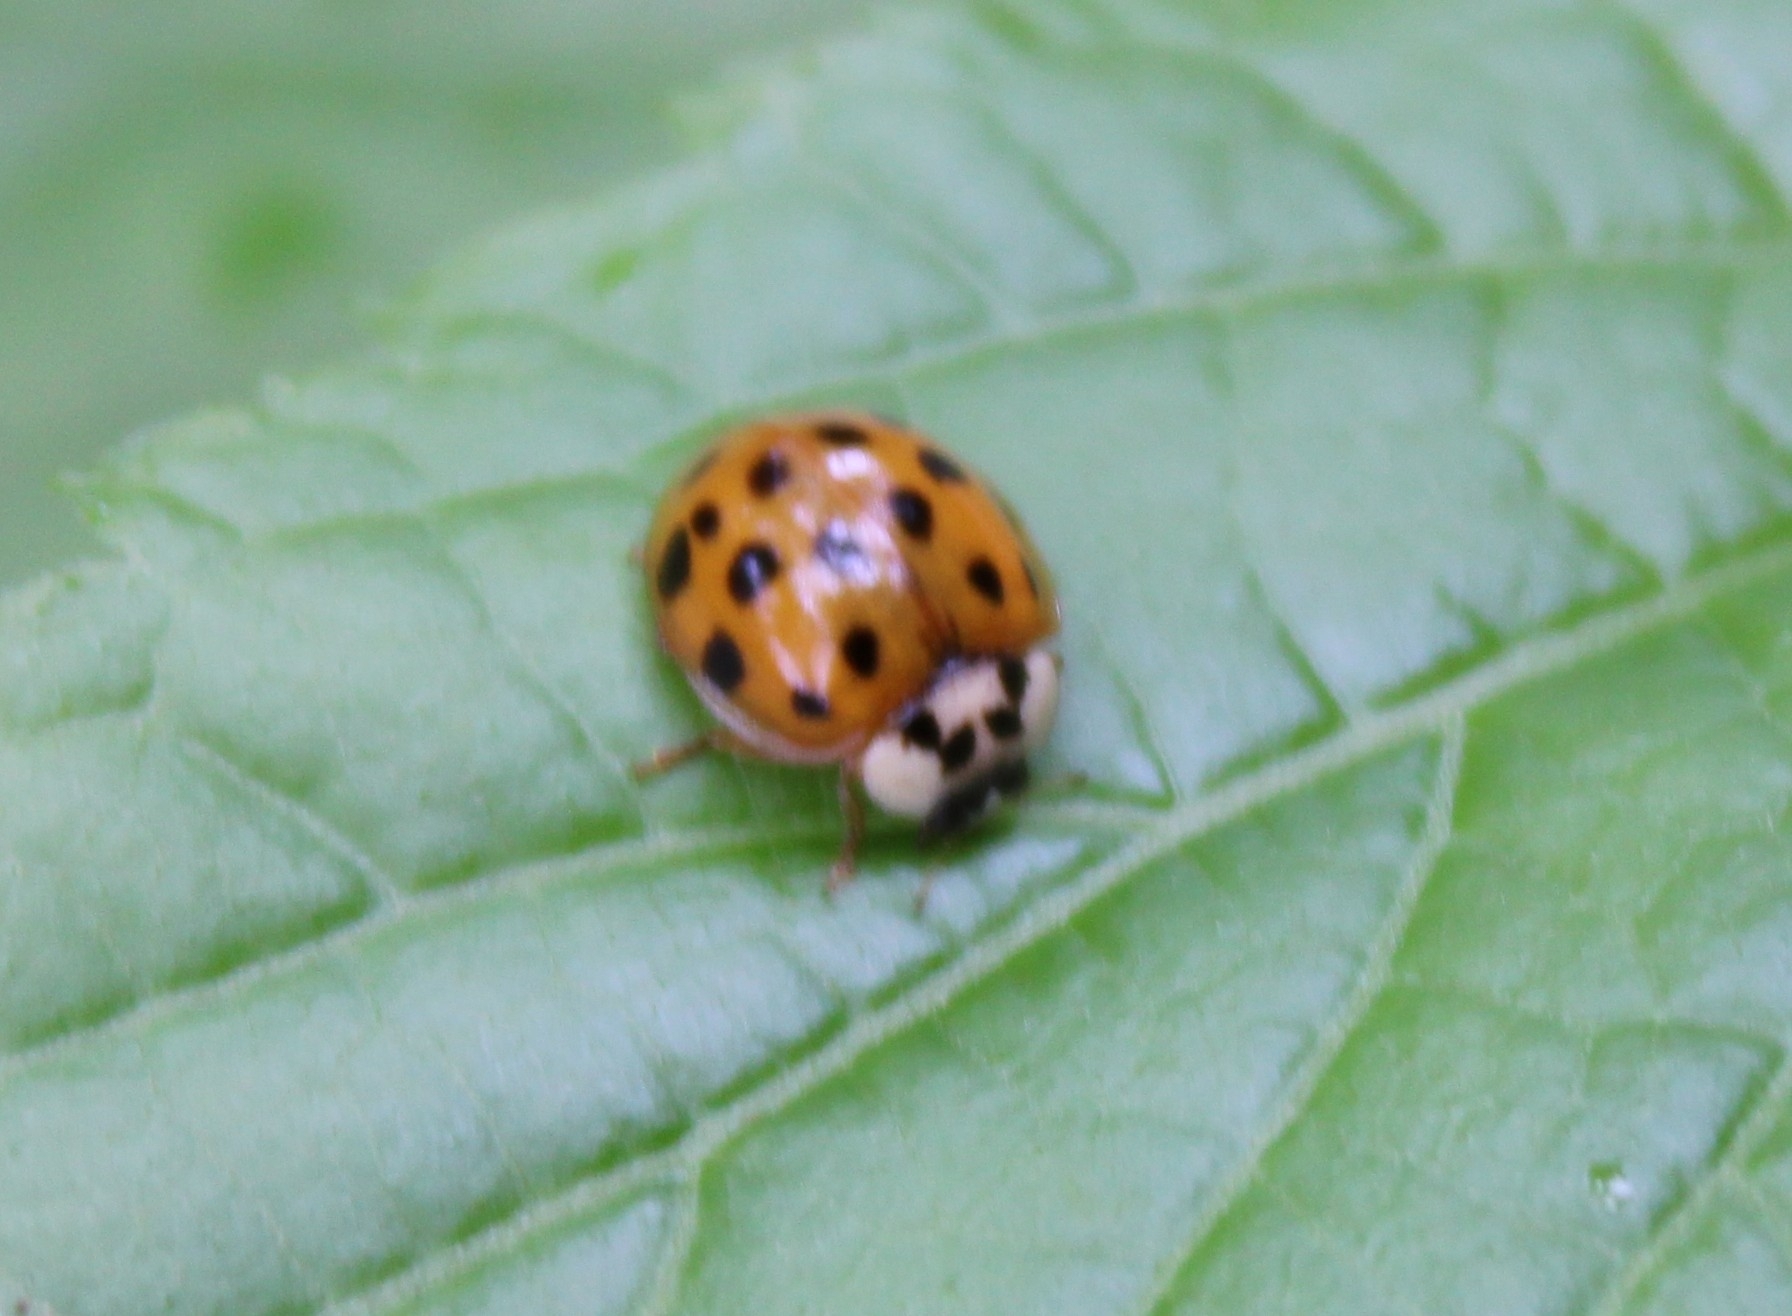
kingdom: Animalia
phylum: Arthropoda
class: Insecta
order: Coleoptera
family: Coccinellidae
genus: Harmonia
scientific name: Harmonia axyridis
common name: Harlequin ladybird
